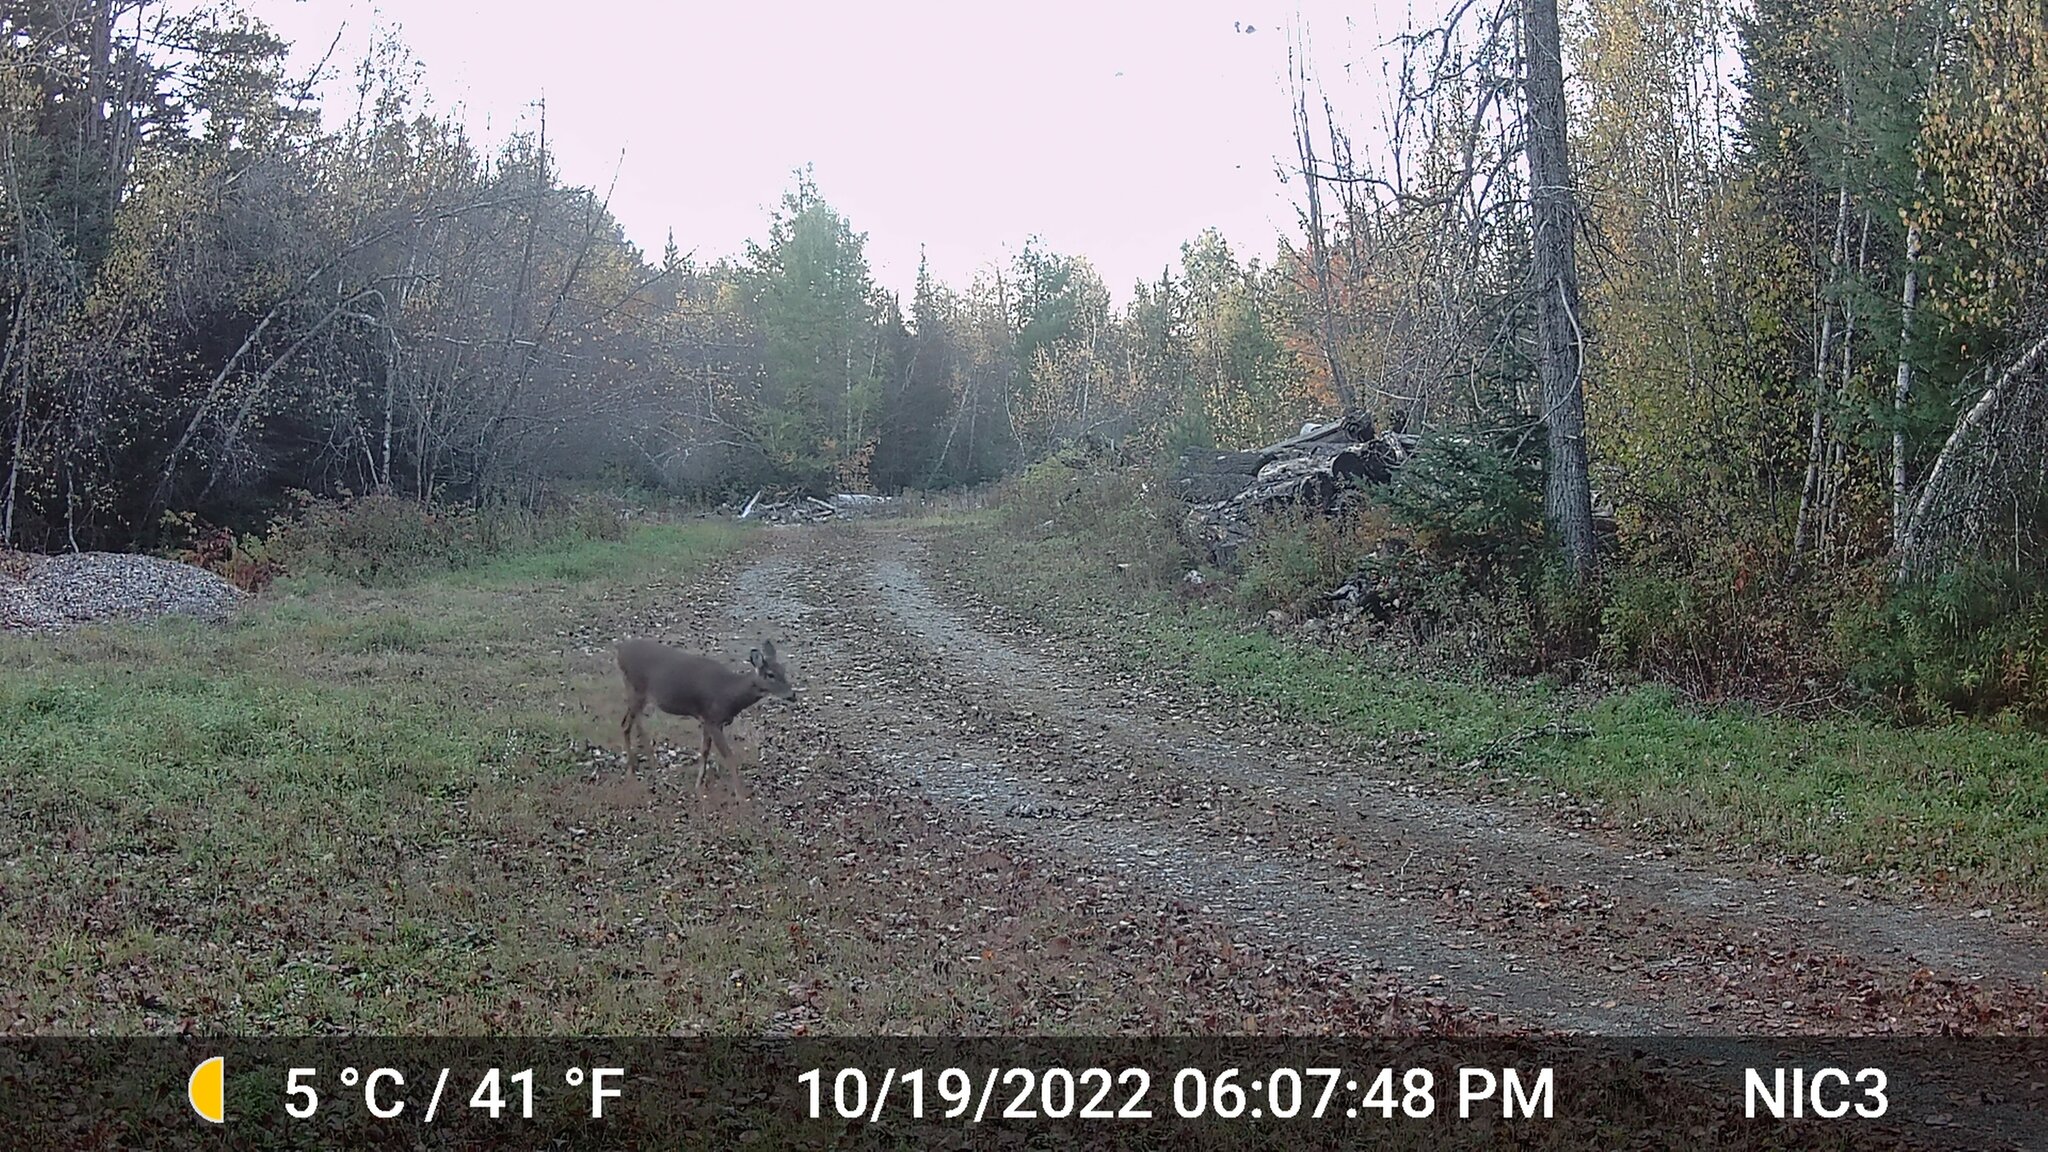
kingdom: Animalia
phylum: Chordata
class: Mammalia
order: Artiodactyla
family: Cervidae
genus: Odocoileus
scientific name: Odocoileus virginianus
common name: White-tailed deer
